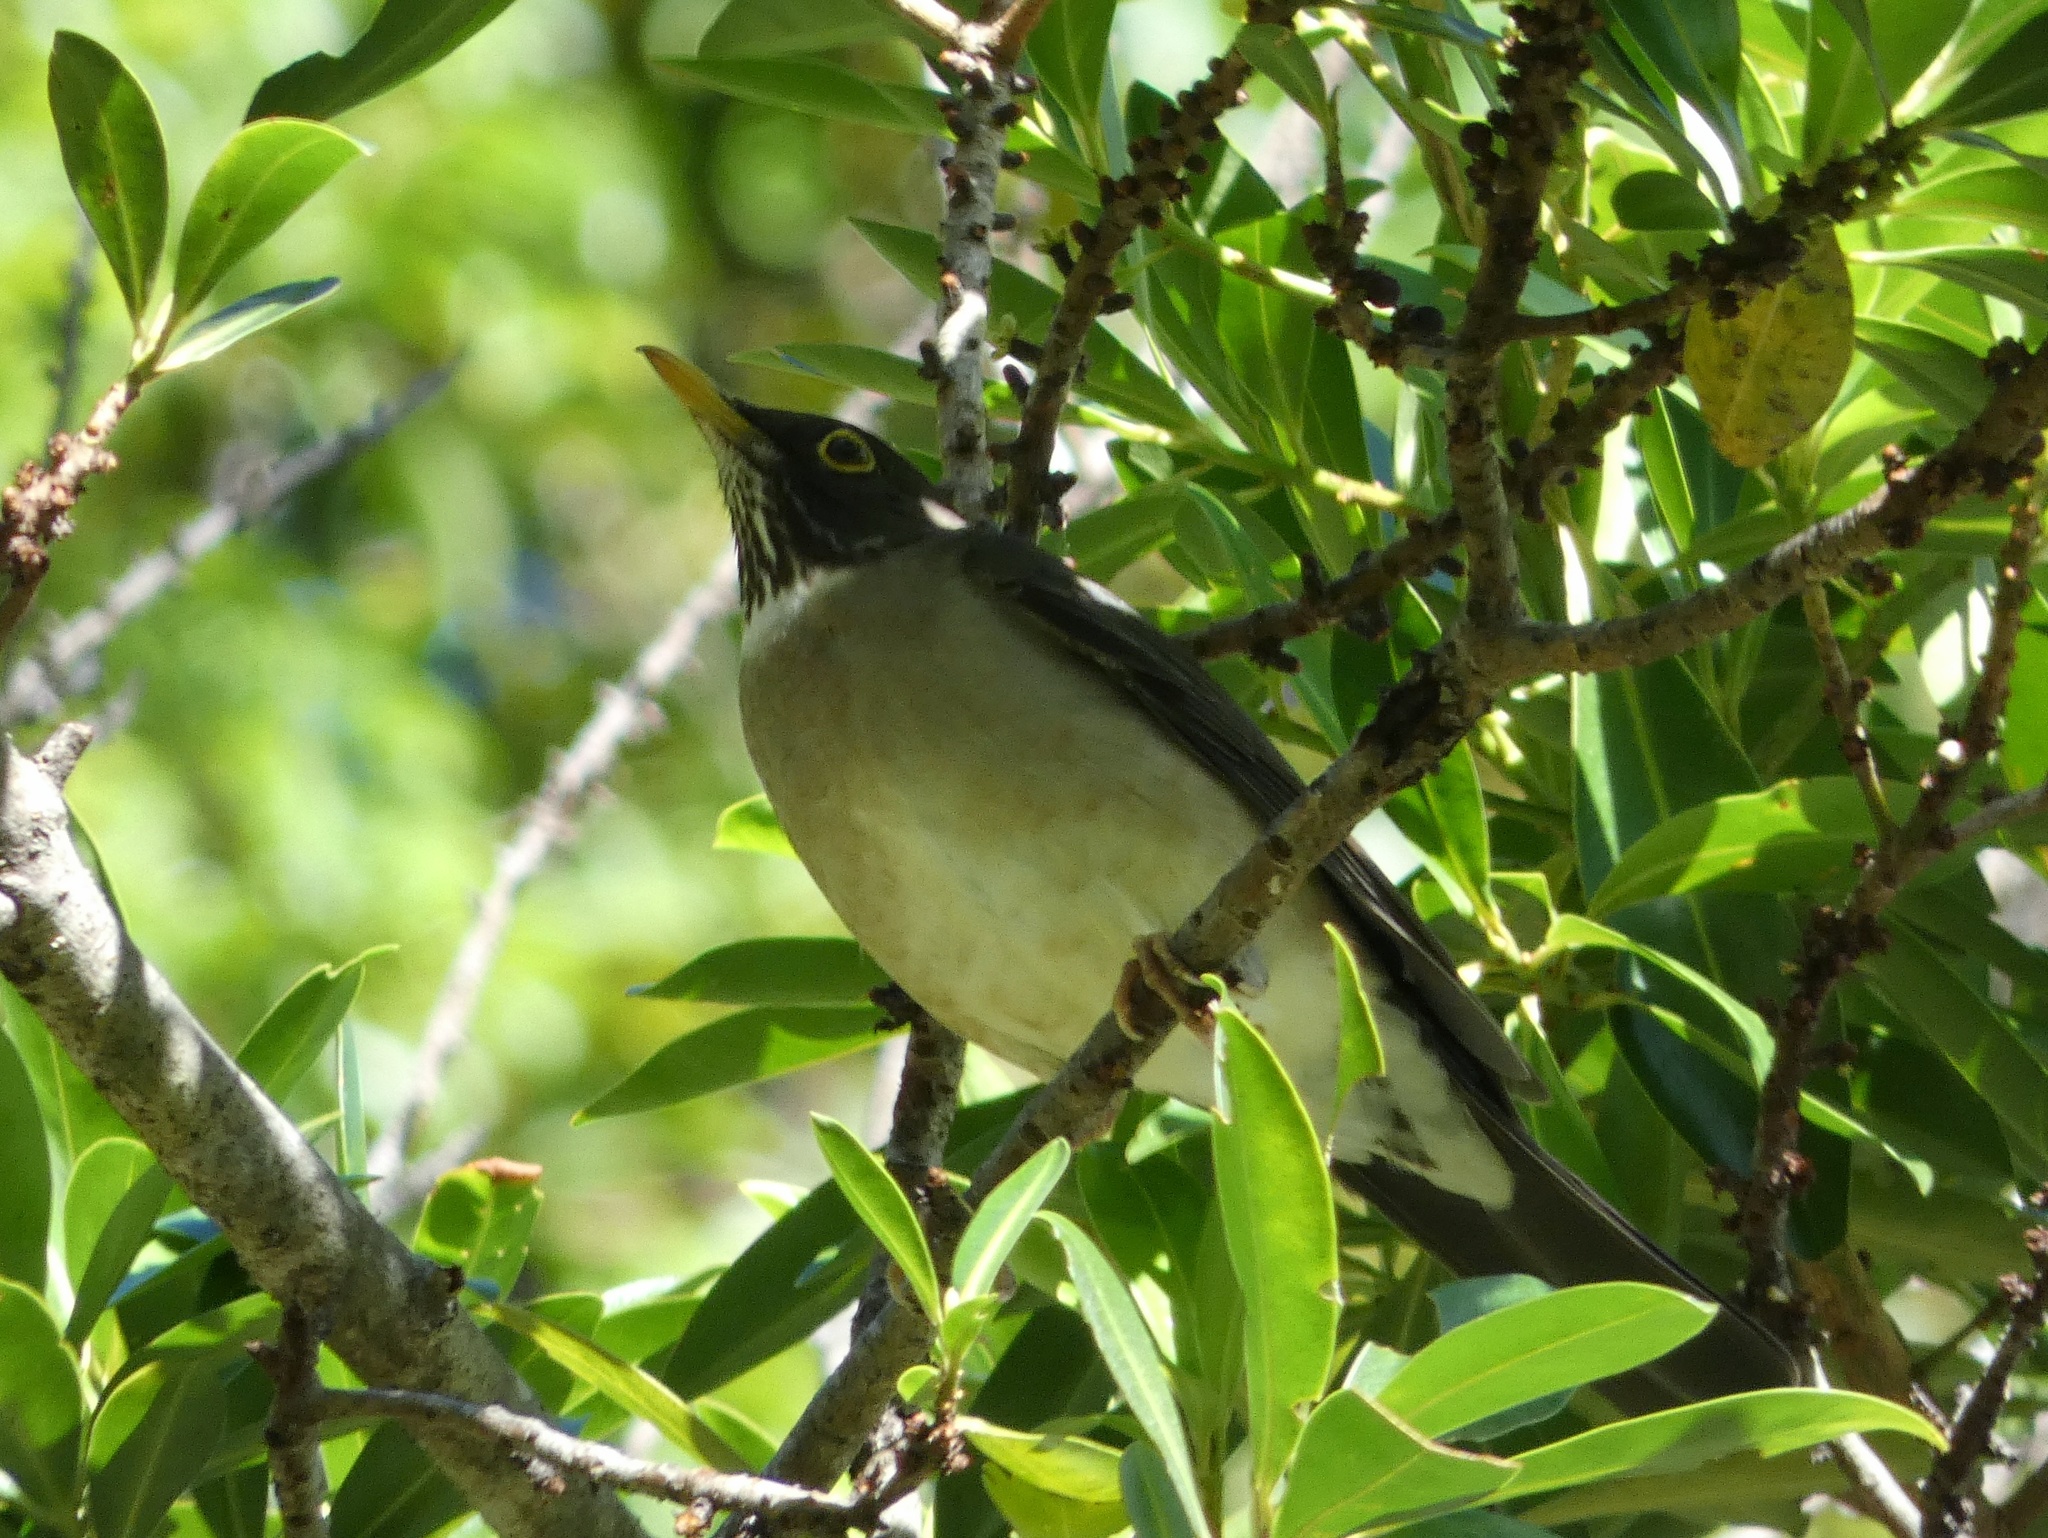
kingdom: Animalia
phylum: Chordata
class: Aves
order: Passeriformes
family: Turdidae
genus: Turdus
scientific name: Turdus assimilis
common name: White-throated thrush
